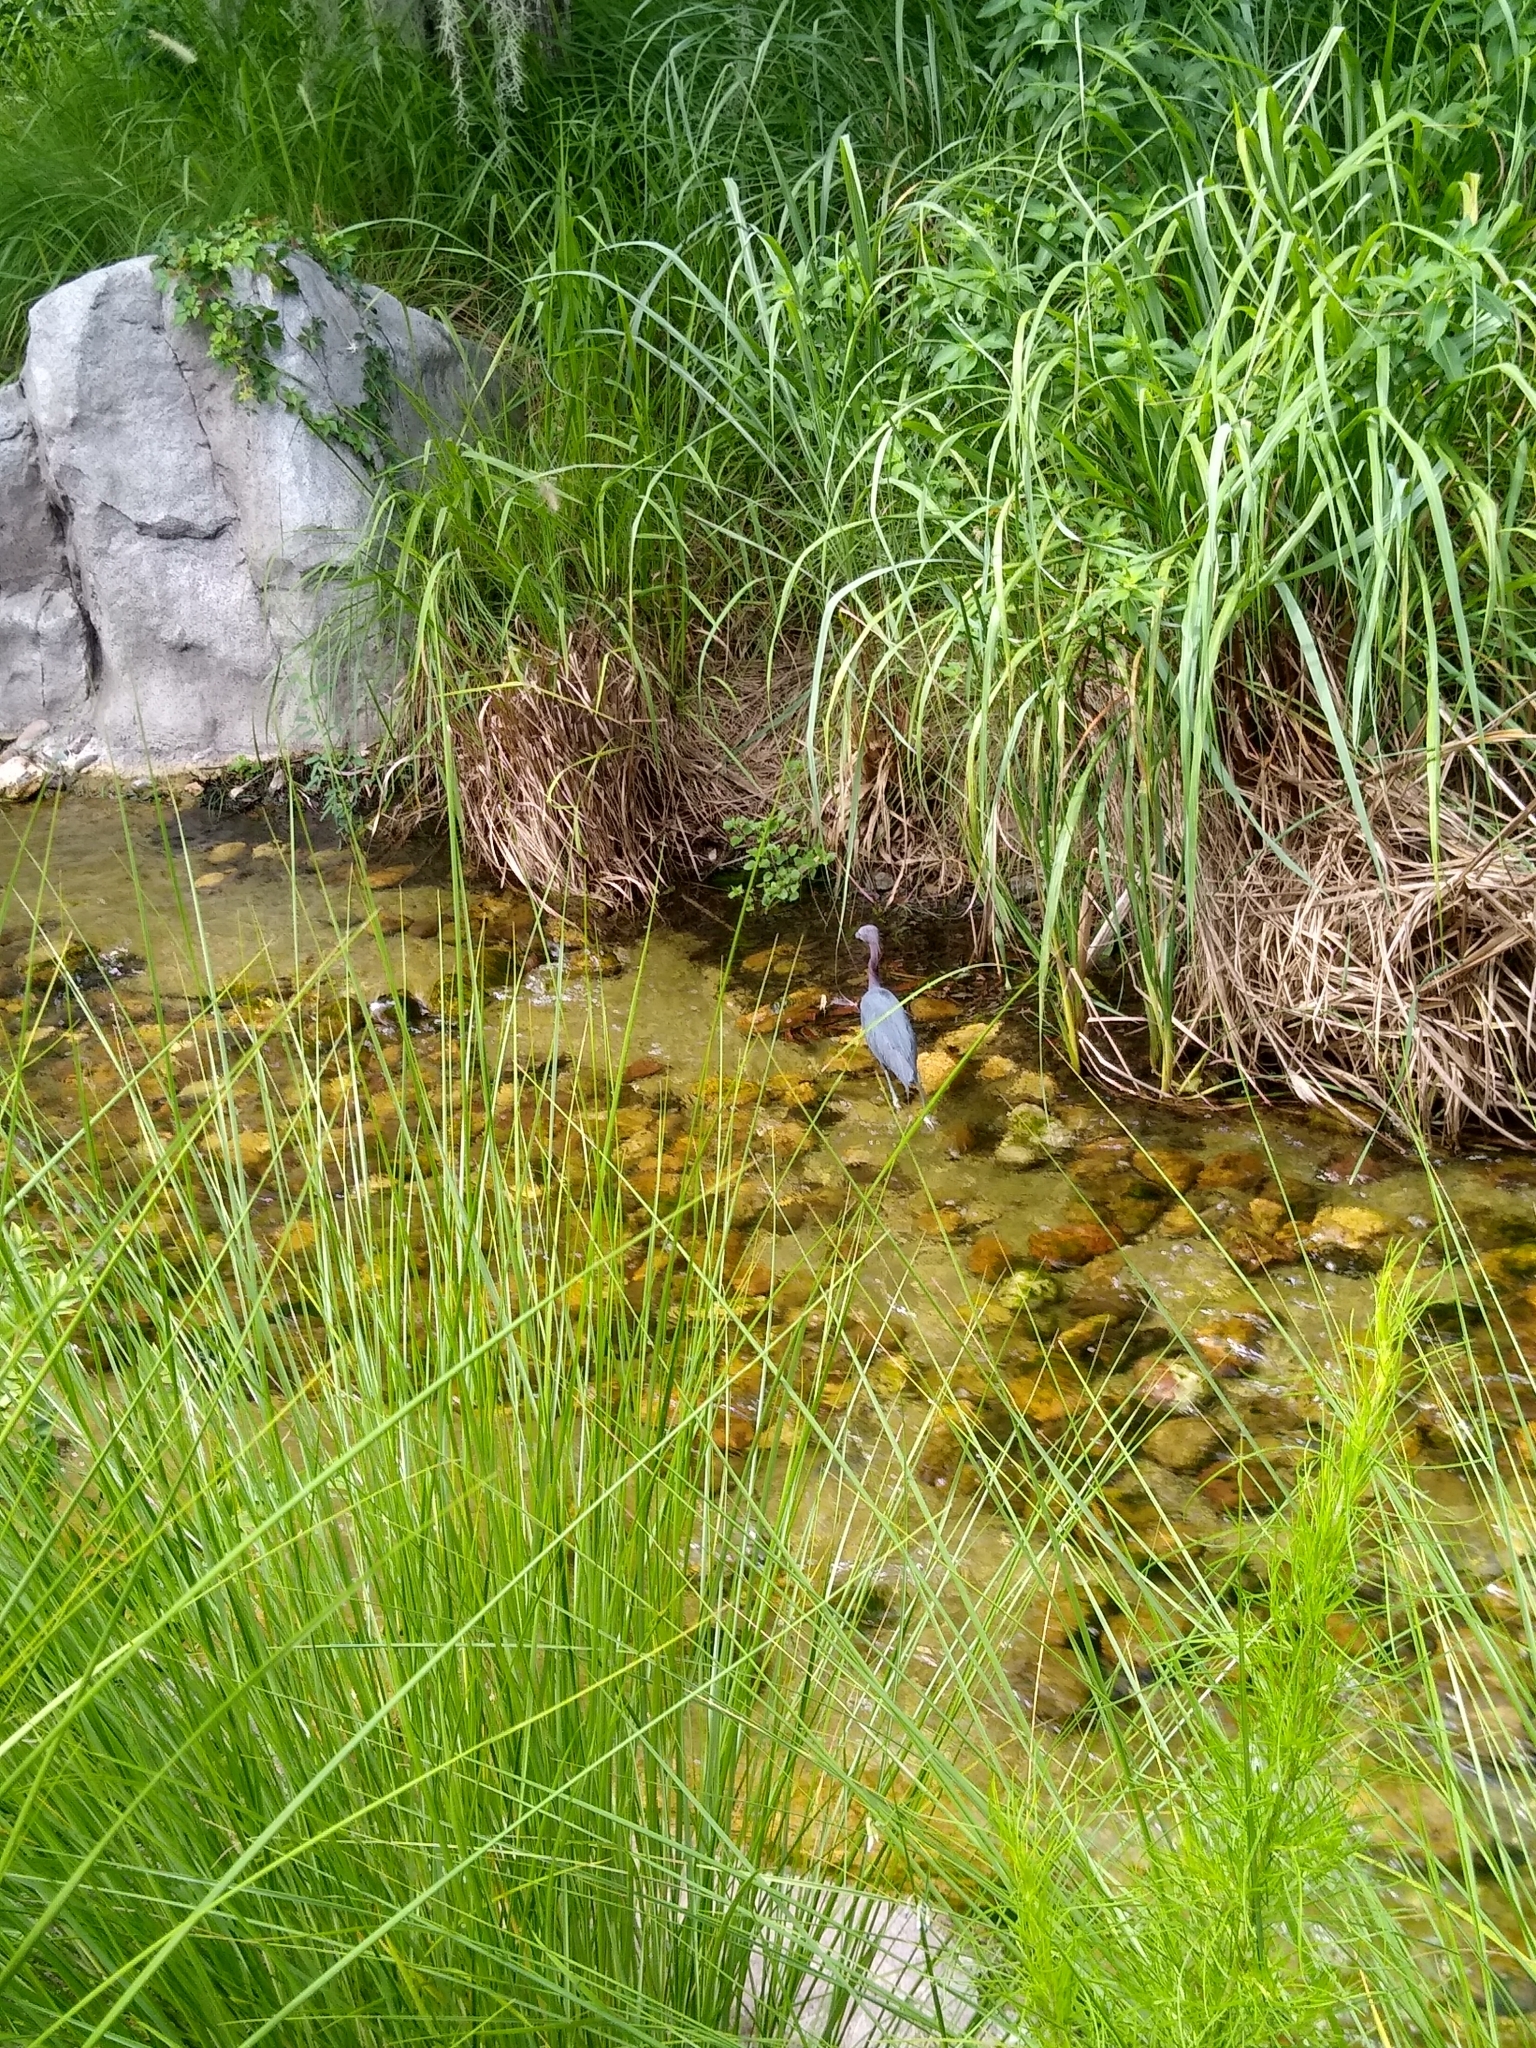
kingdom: Animalia
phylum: Chordata
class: Aves
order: Pelecaniformes
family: Ardeidae
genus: Egretta
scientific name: Egretta caerulea
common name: Little blue heron
